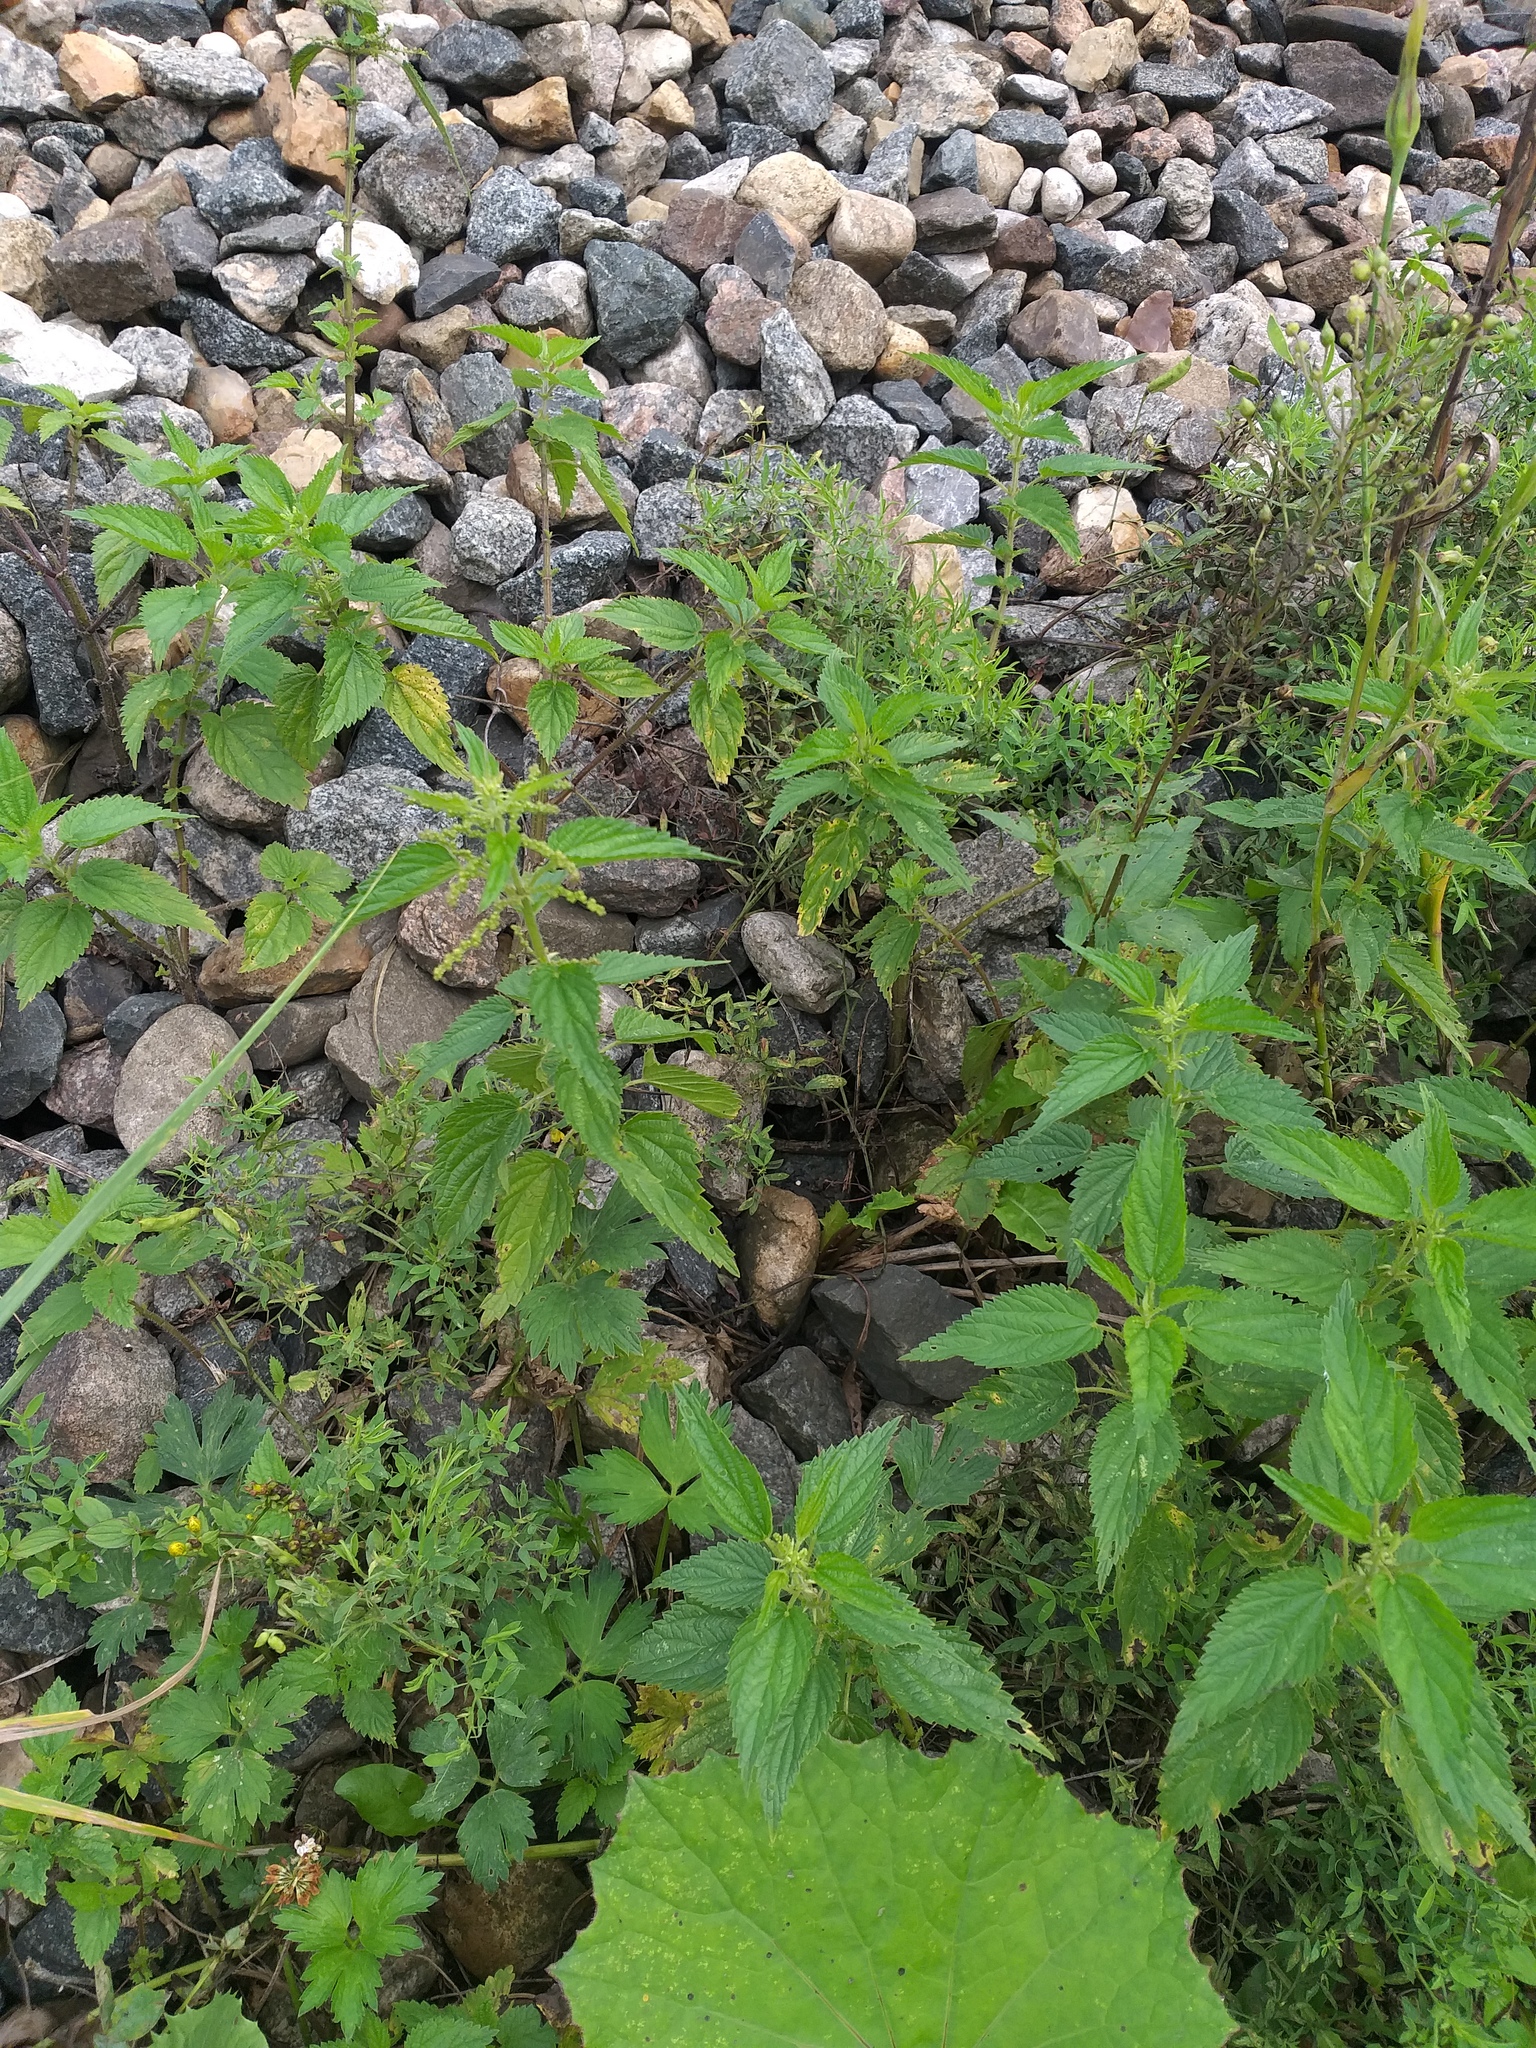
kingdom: Plantae
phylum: Tracheophyta
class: Magnoliopsida
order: Rosales
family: Urticaceae
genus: Urtica
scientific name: Urtica dioica
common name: Common nettle
